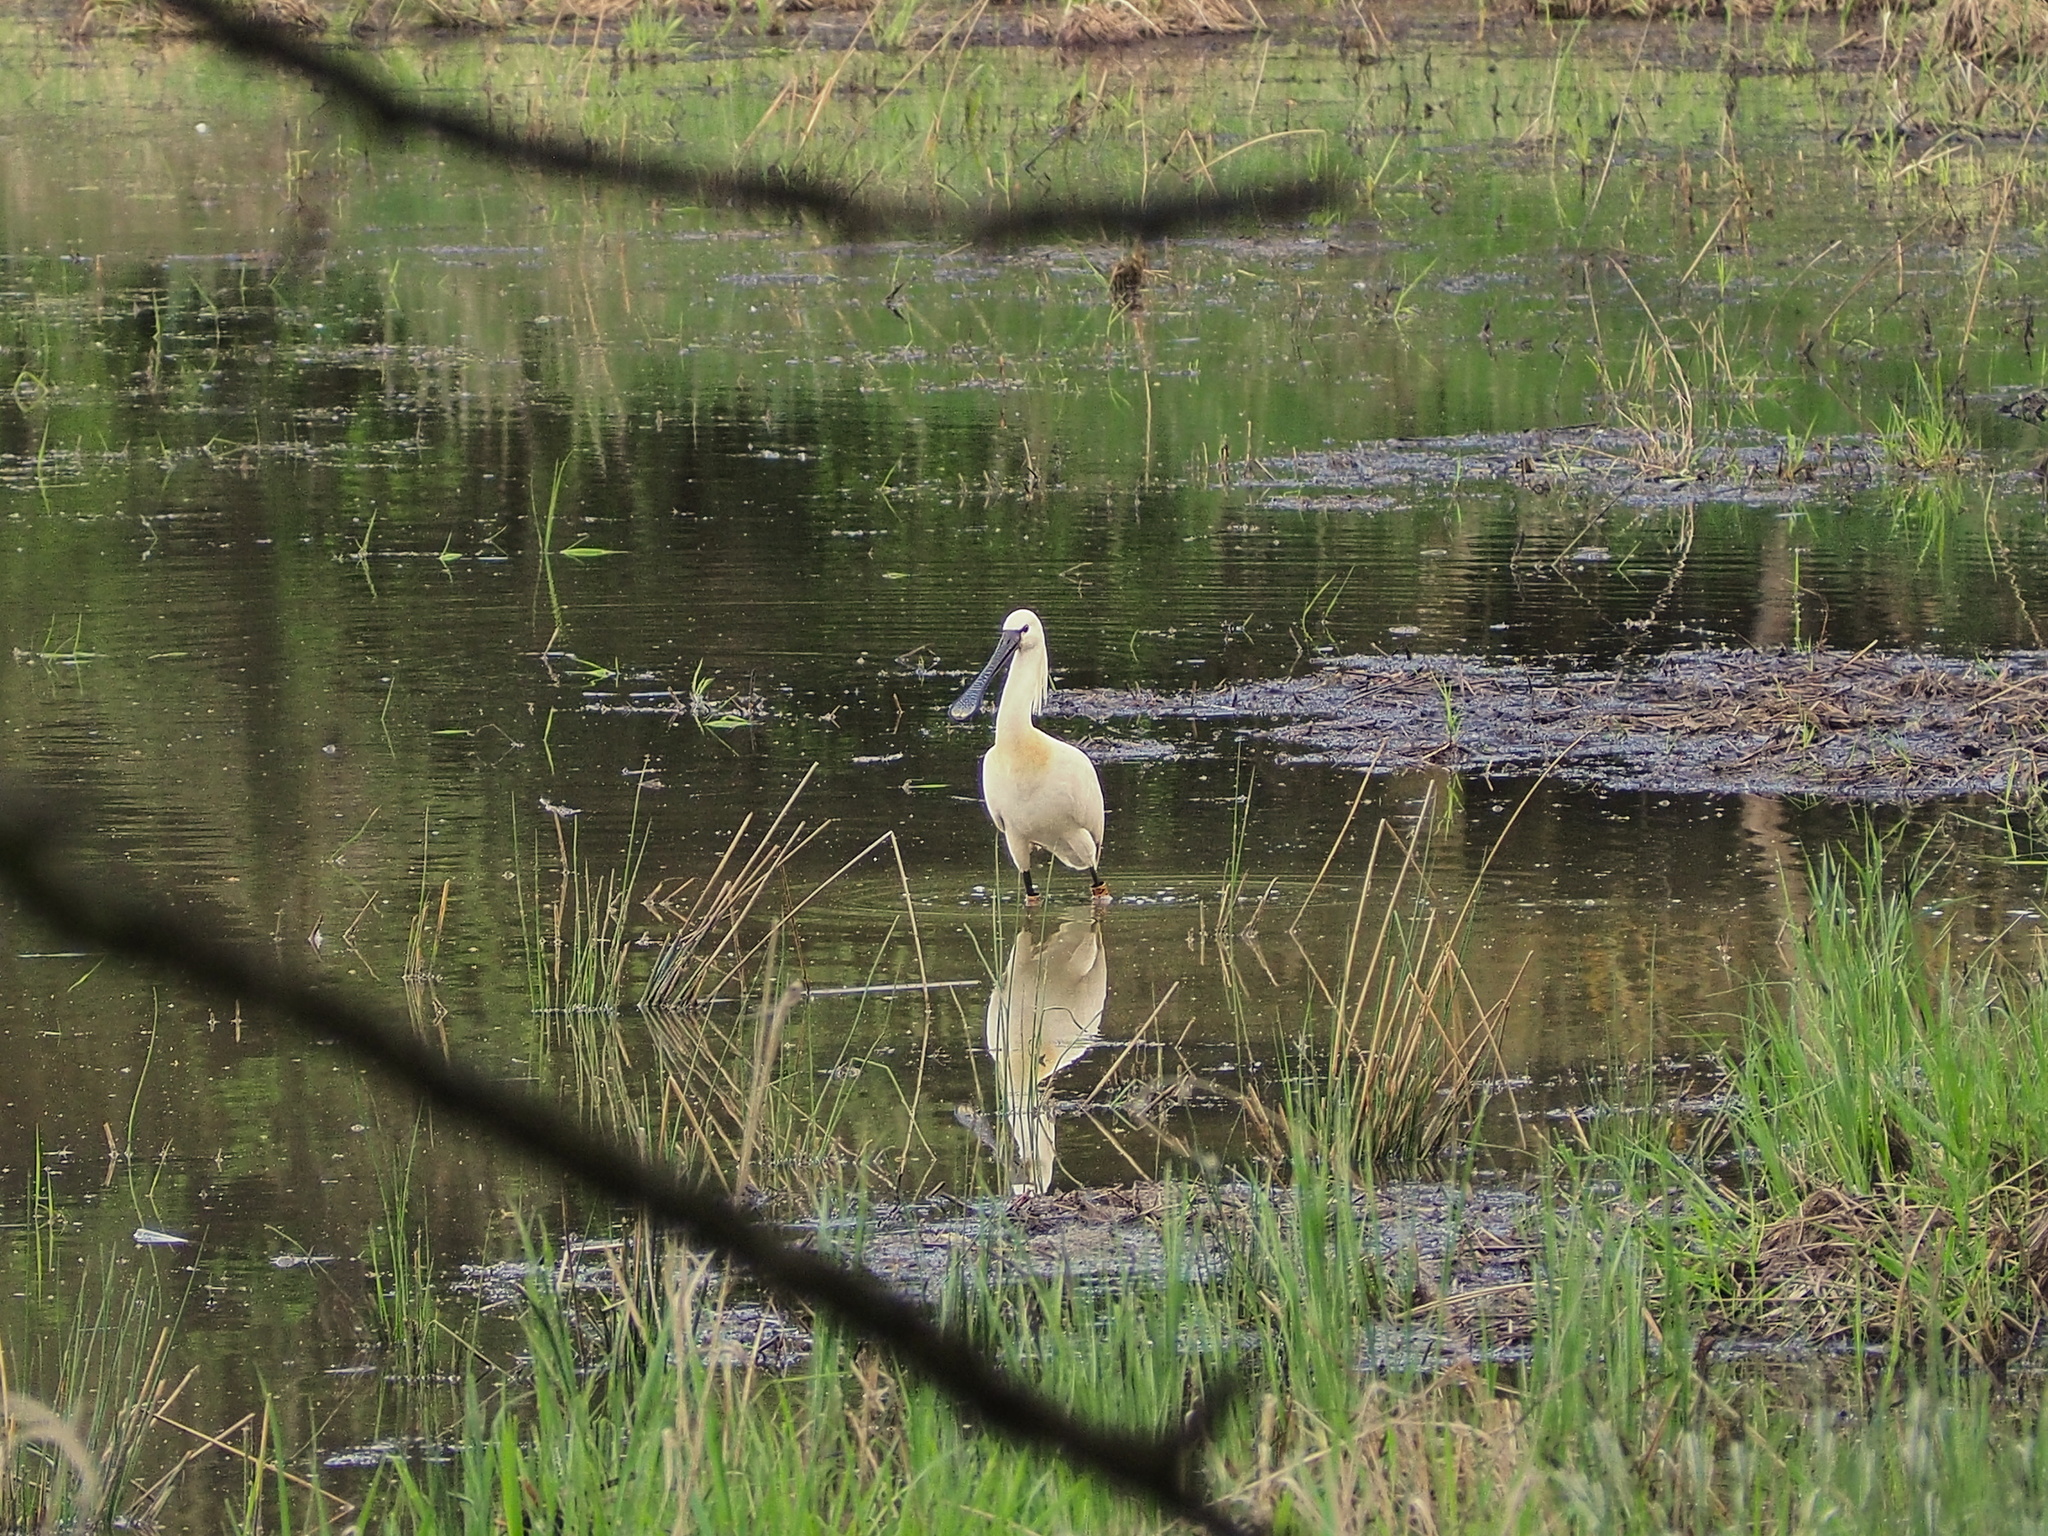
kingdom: Animalia
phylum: Chordata
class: Aves
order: Pelecaniformes
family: Threskiornithidae
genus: Platalea
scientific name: Platalea leucorodia
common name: Eurasian spoonbill
